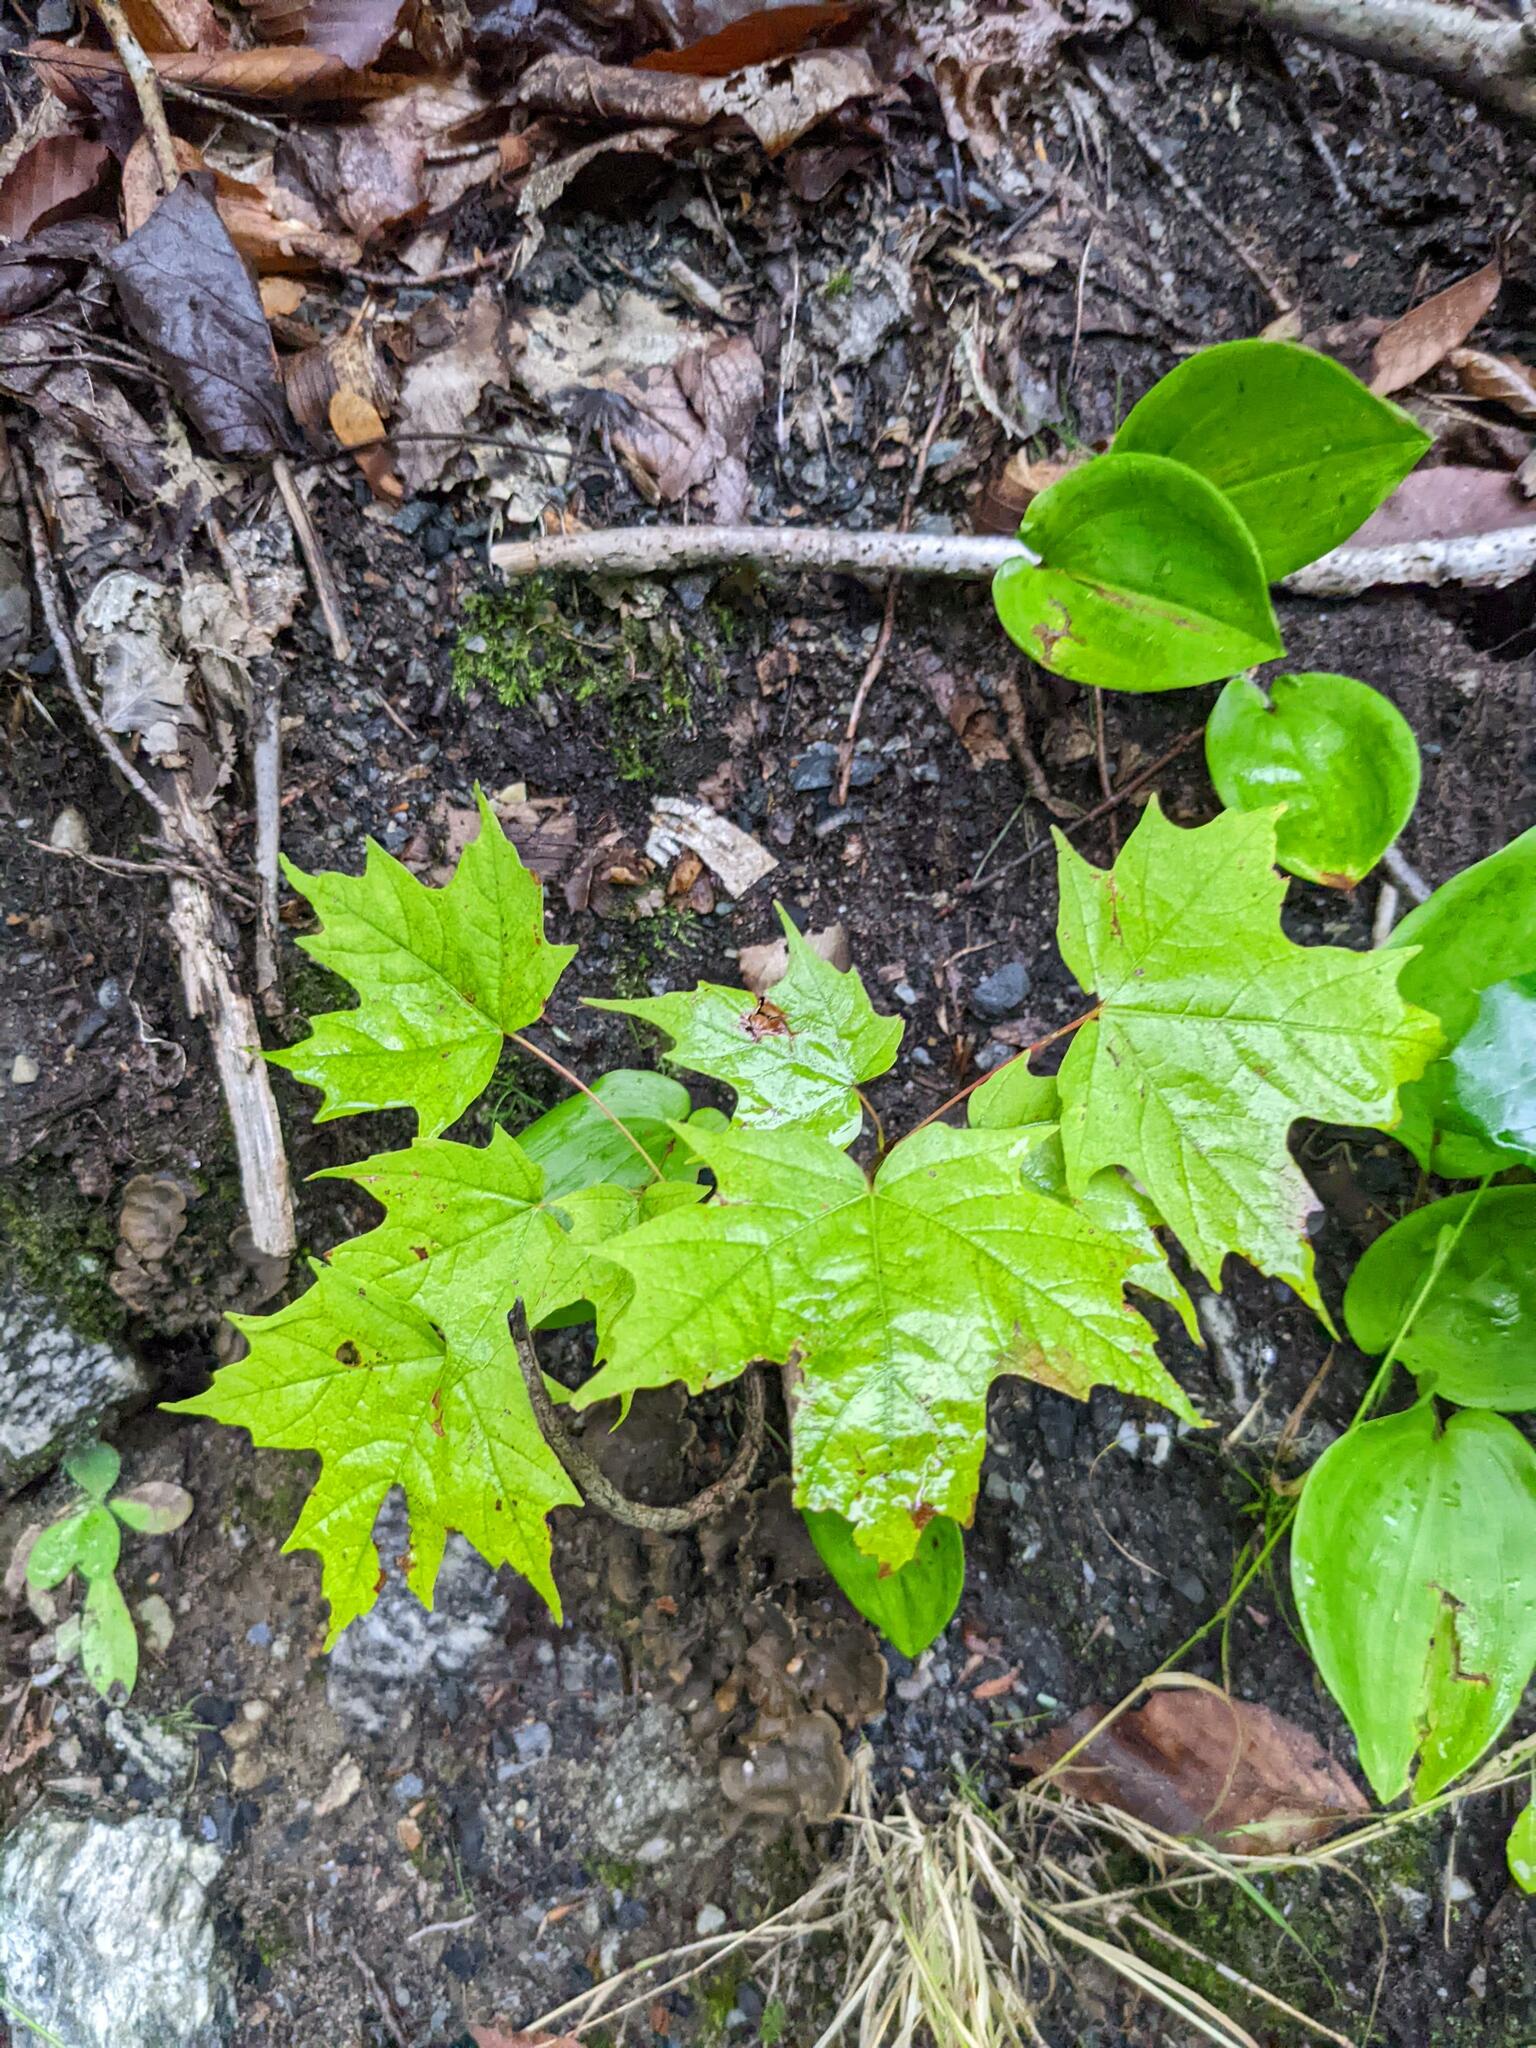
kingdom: Plantae
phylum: Tracheophyta
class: Magnoliopsida
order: Sapindales
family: Sapindaceae
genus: Acer
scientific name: Acer saccharum
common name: Sugar maple
